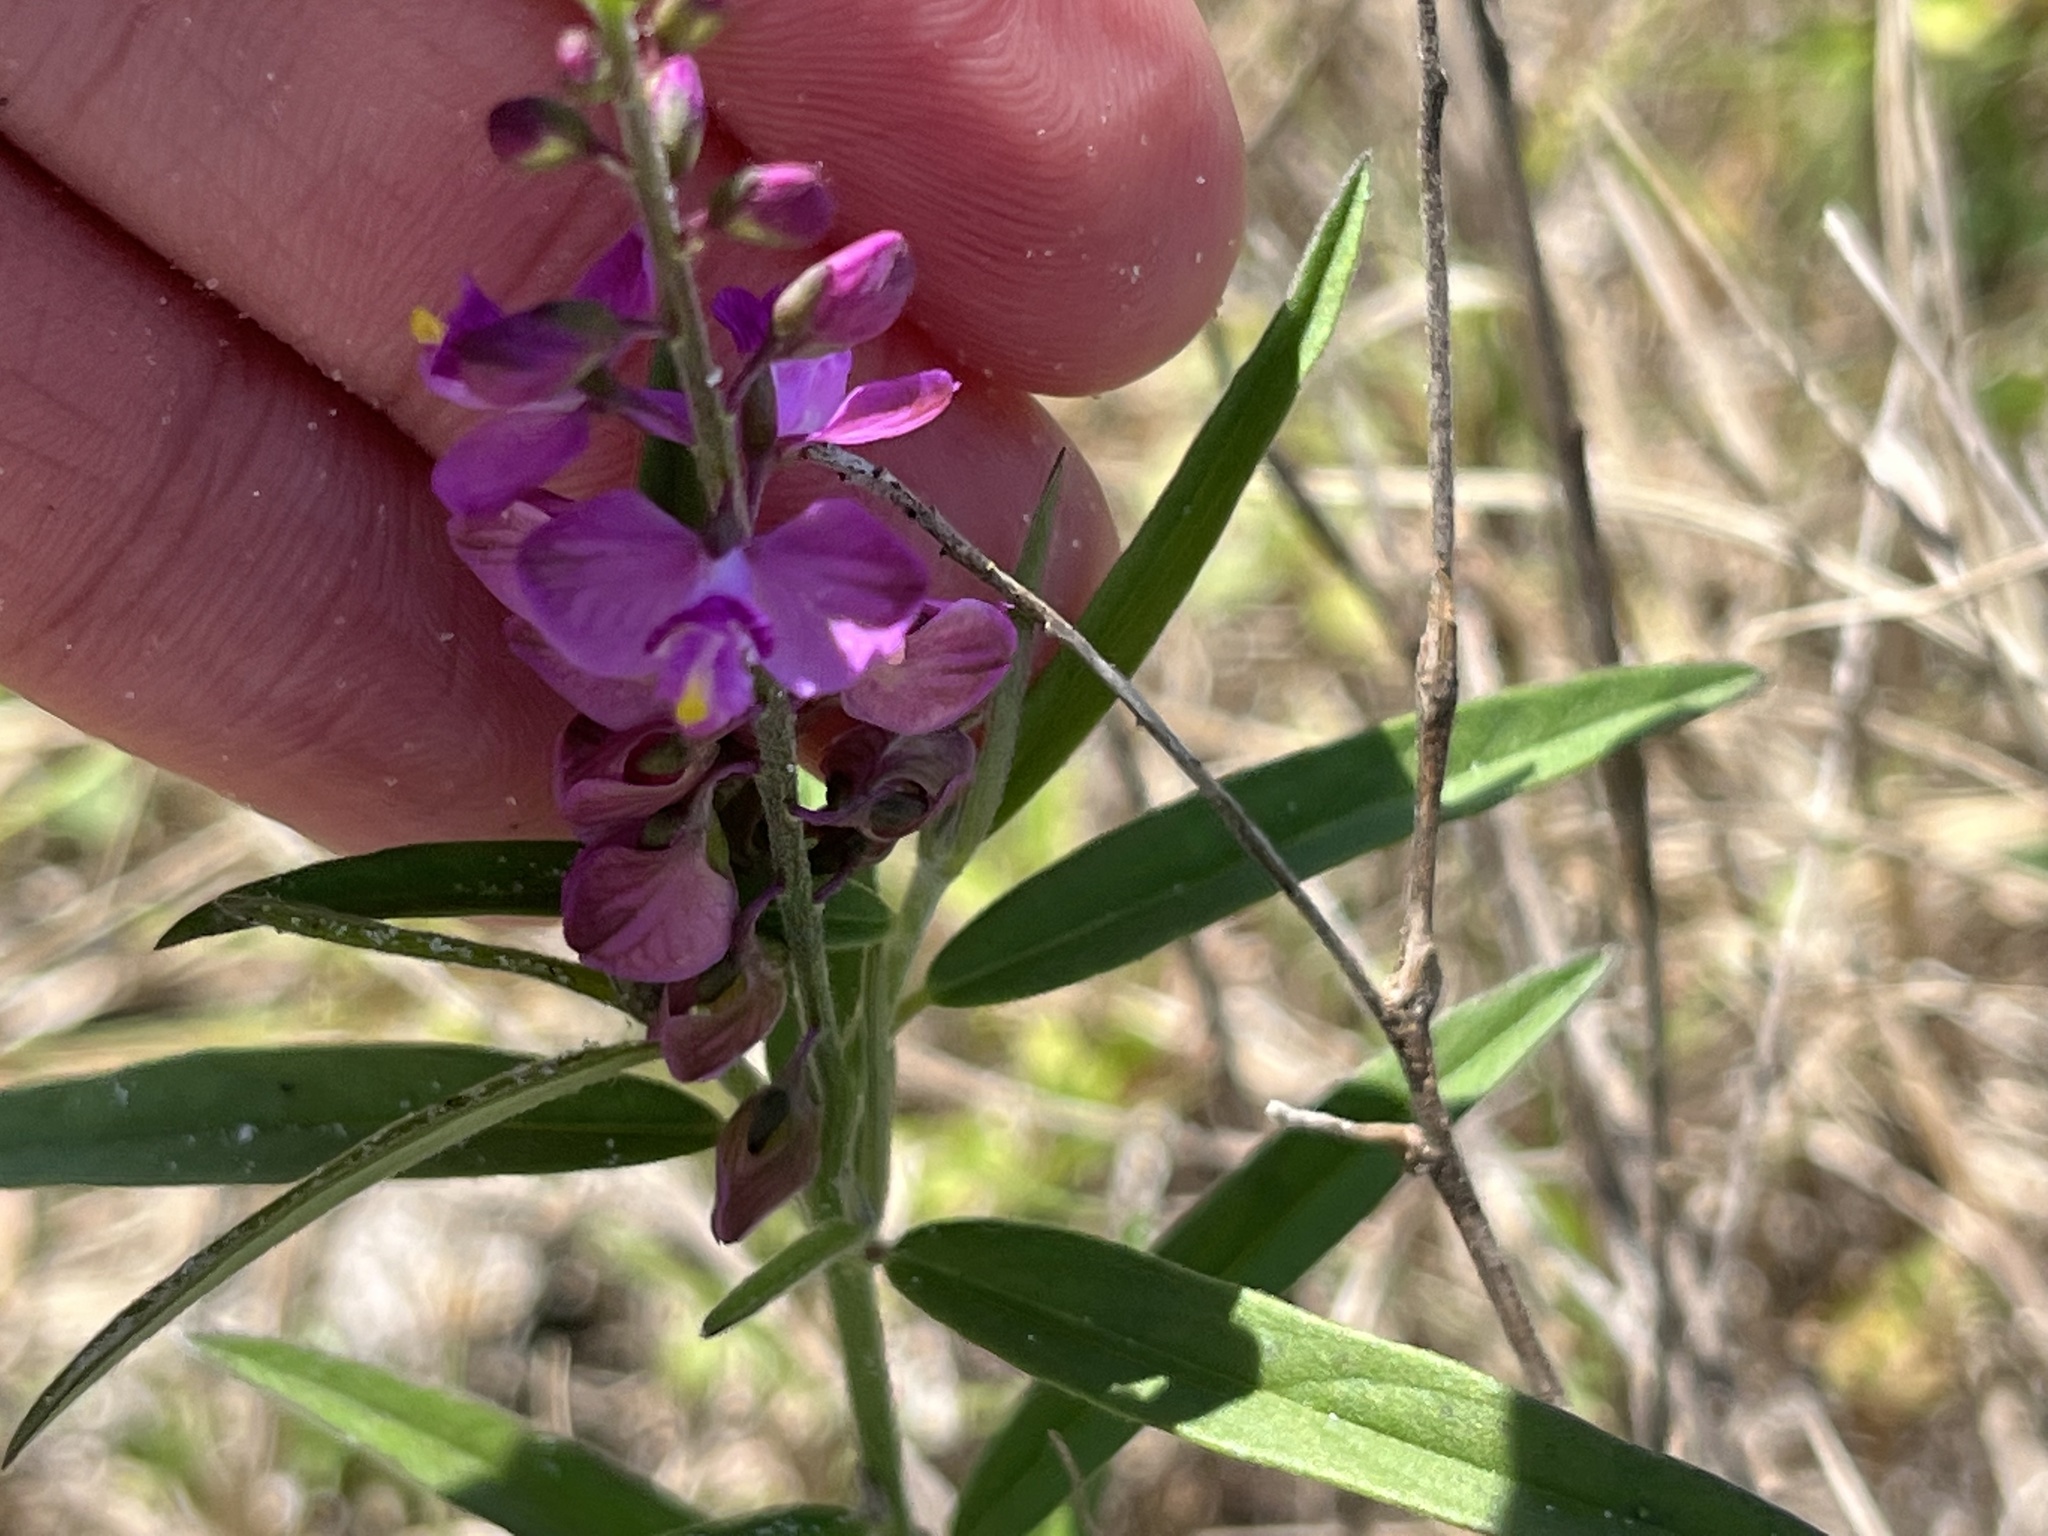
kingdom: Plantae
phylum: Tracheophyta
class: Magnoliopsida
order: Fabales
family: Polygalaceae
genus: Asemeia
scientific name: Asemeia grandiflora
